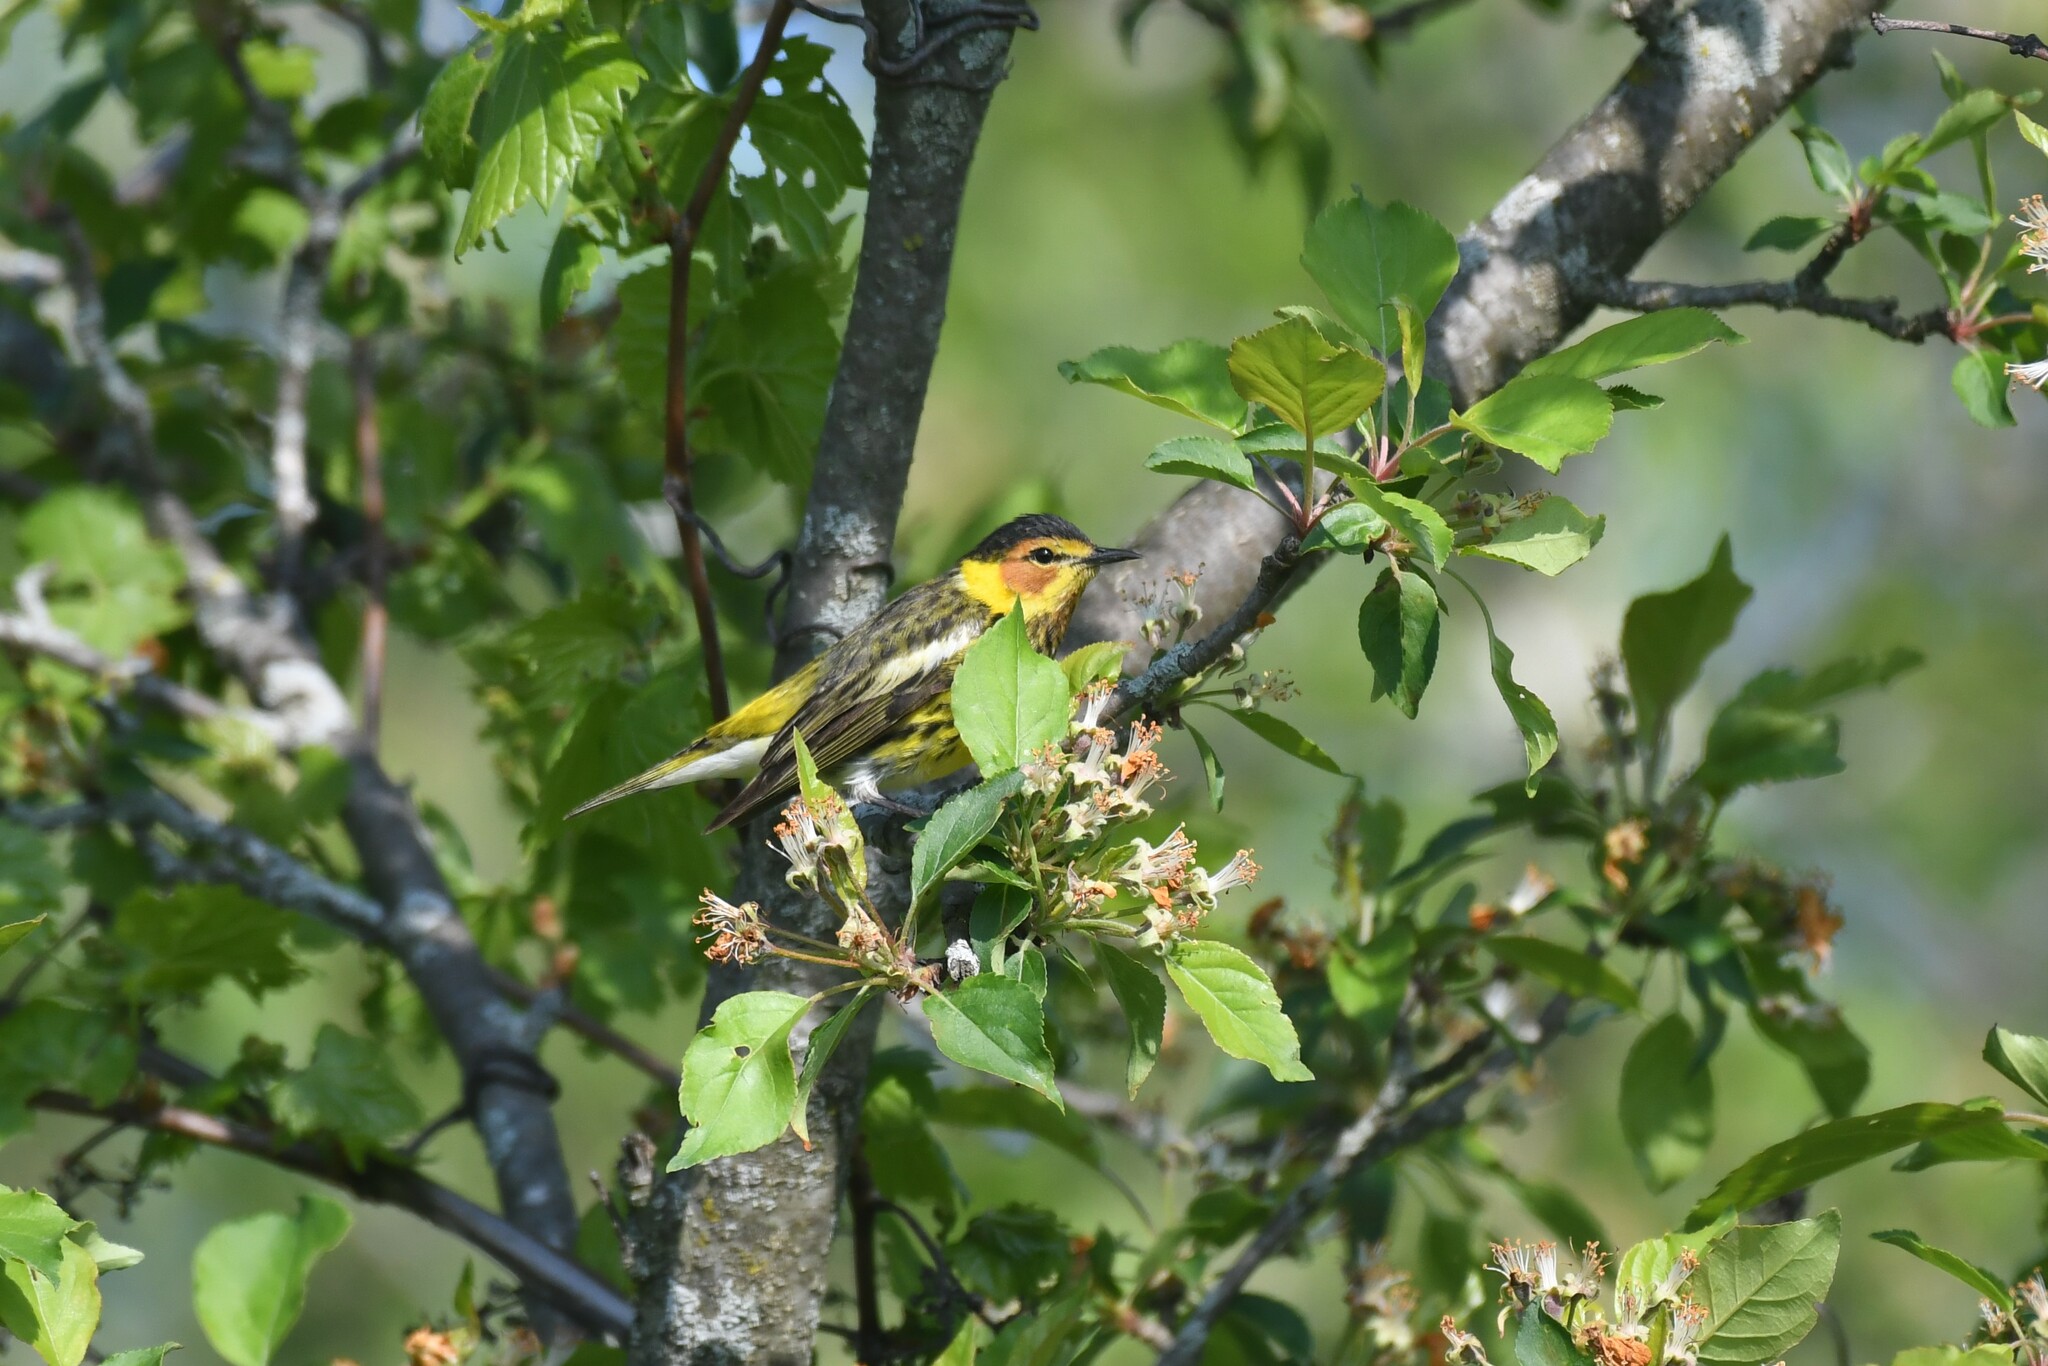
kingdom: Animalia
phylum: Chordata
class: Aves
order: Passeriformes
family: Parulidae
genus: Setophaga
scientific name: Setophaga tigrina
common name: Cape may warbler
